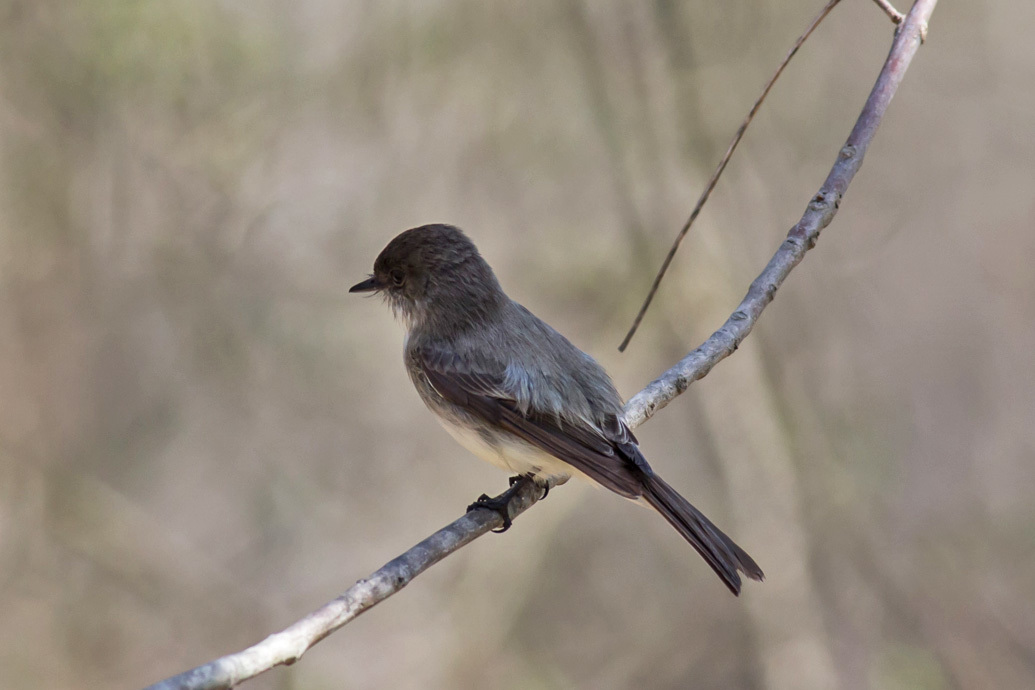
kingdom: Animalia
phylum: Chordata
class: Aves
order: Passeriformes
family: Tyrannidae
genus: Sayornis
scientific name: Sayornis phoebe
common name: Eastern phoebe
